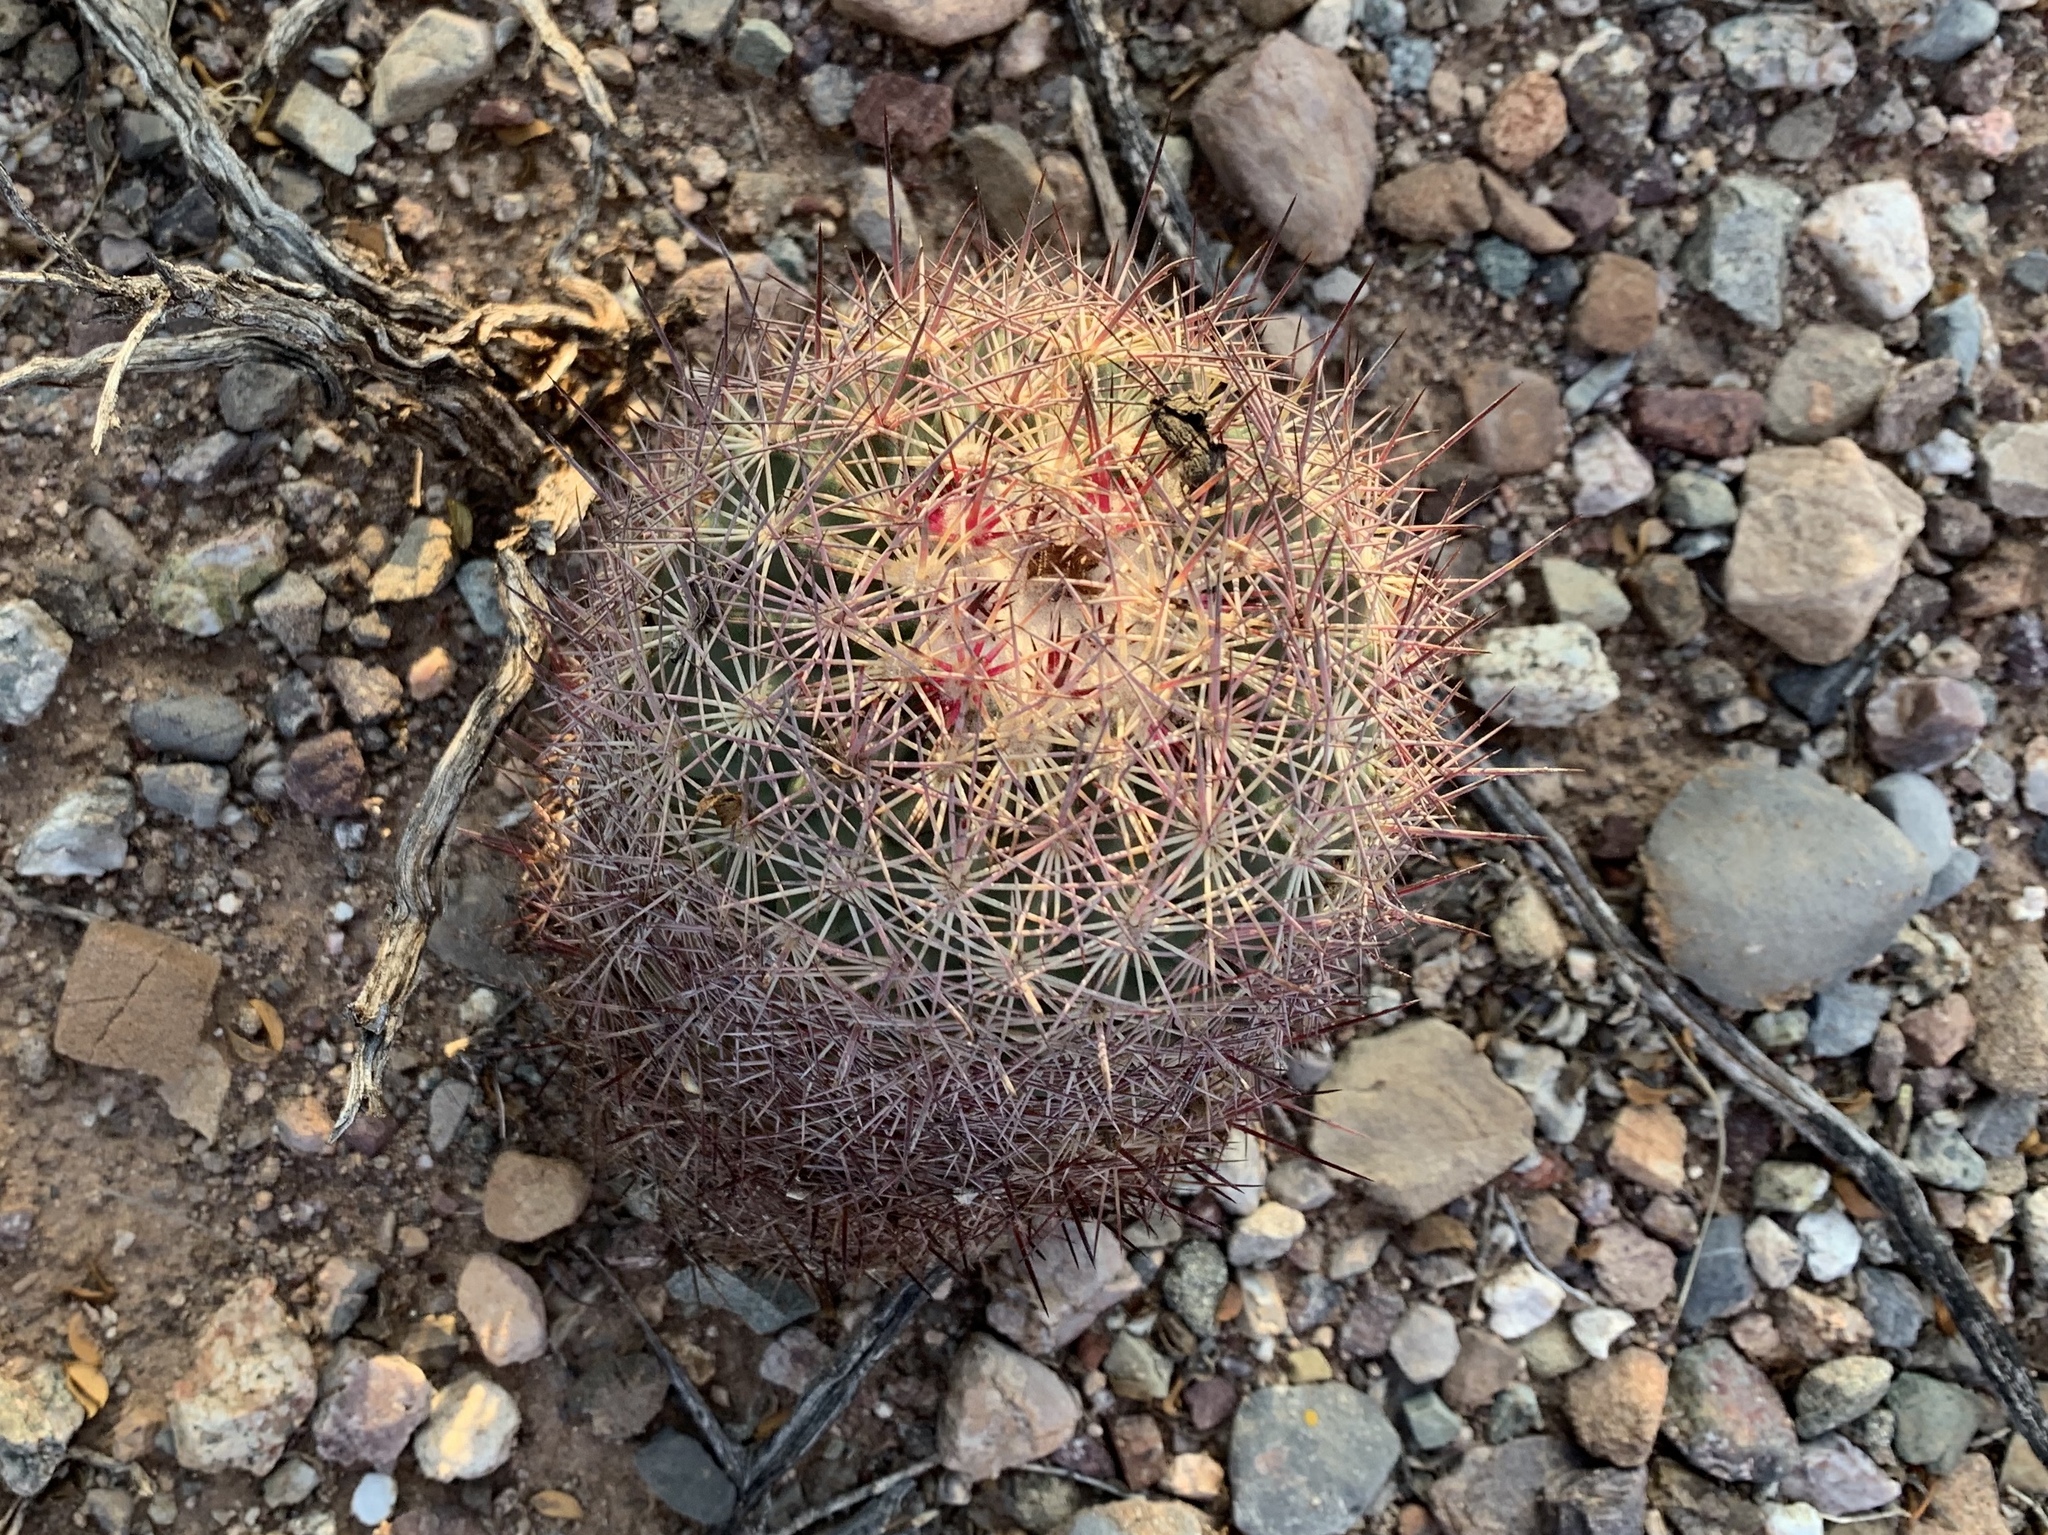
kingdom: Plantae
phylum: Tracheophyta
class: Magnoliopsida
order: Caryophyllales
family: Cactaceae
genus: Sclerocactus
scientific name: Sclerocactus johnsonii
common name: Eight-spine fishhook cactus
